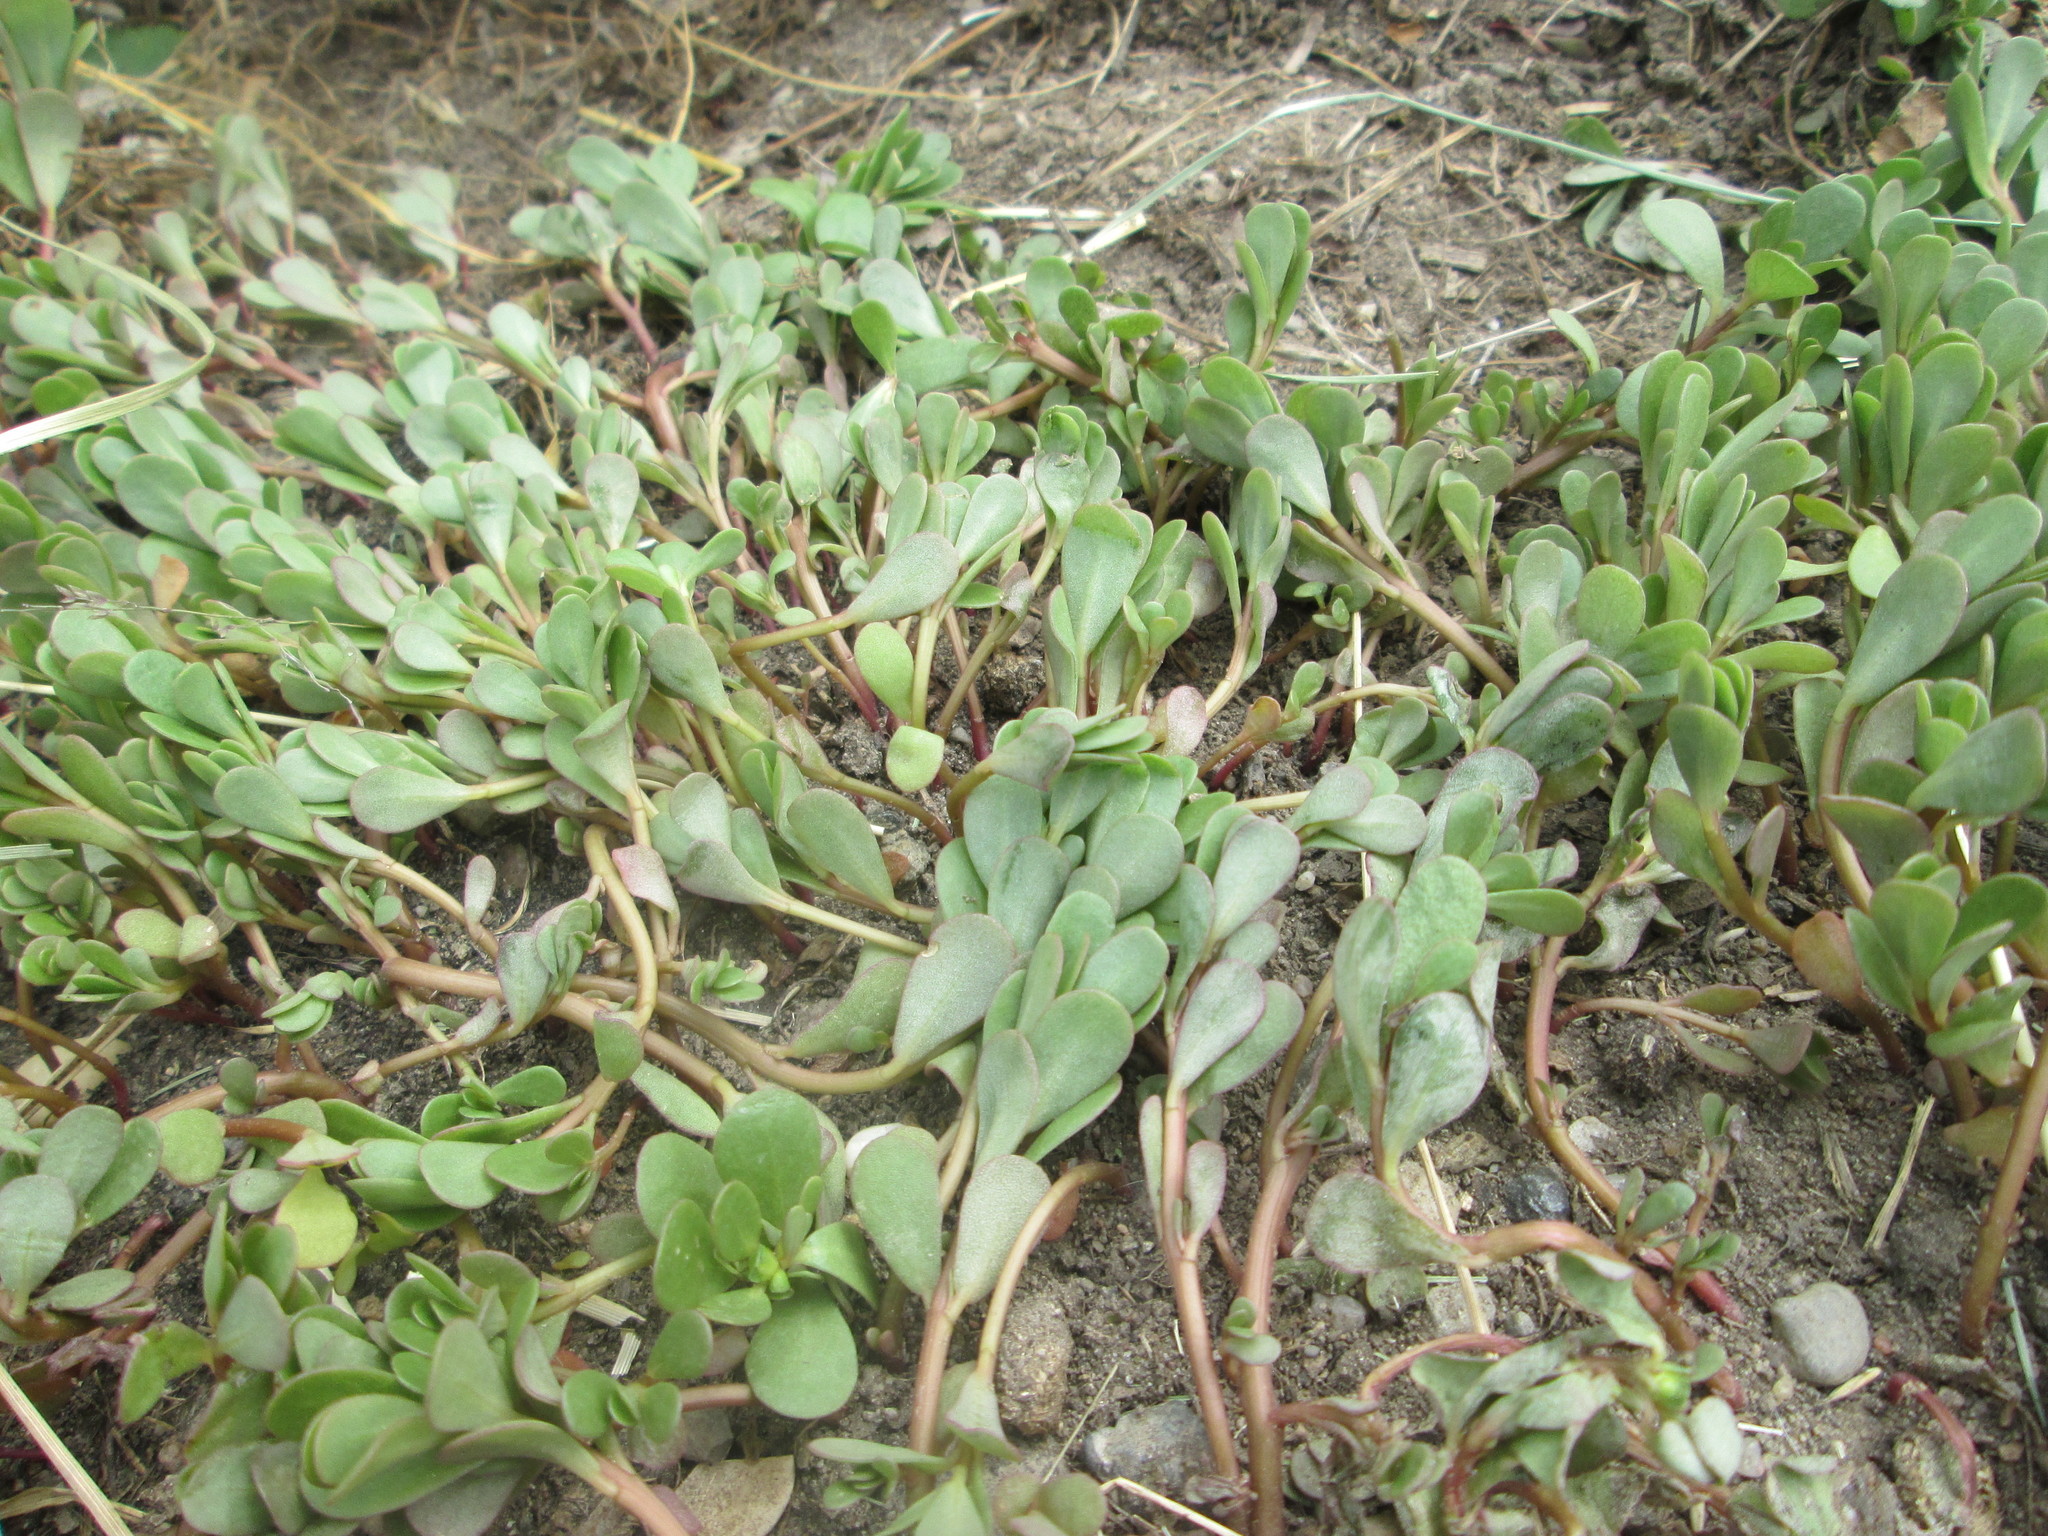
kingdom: Plantae
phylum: Tracheophyta
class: Magnoliopsida
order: Caryophyllales
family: Portulacaceae
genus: Portulaca
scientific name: Portulaca oleracea
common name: Common purslane
